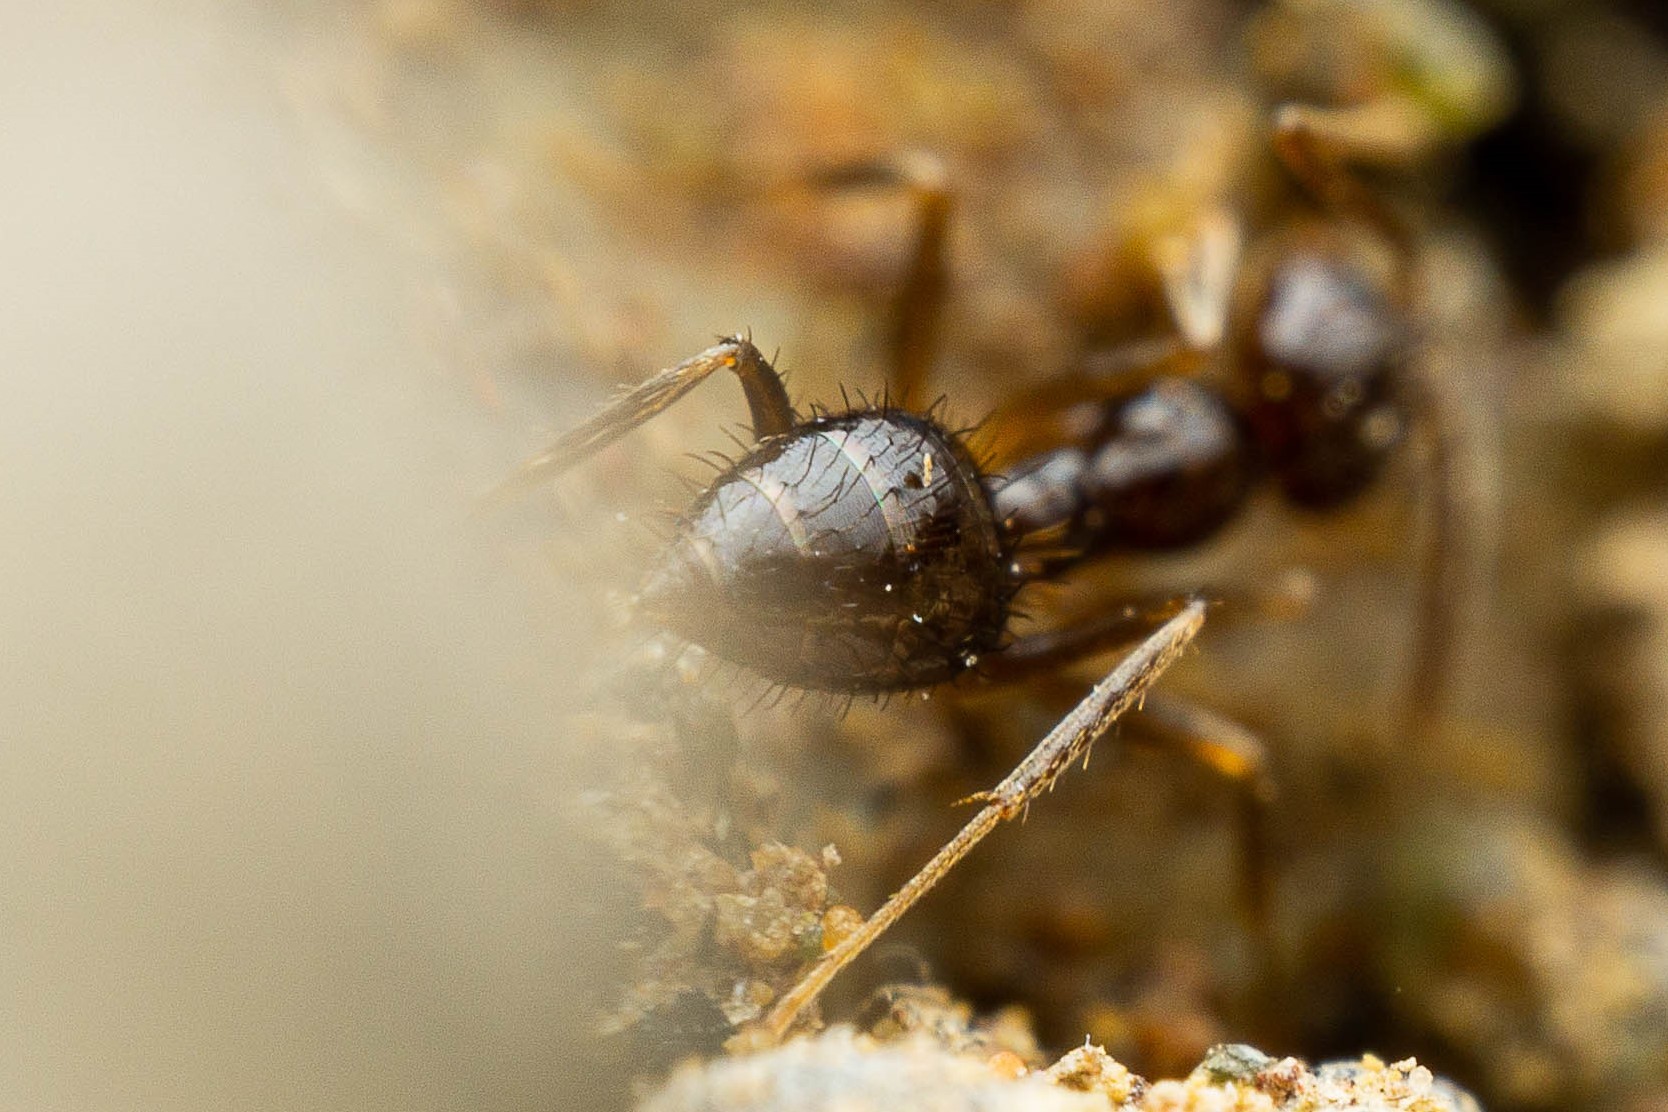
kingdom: Animalia
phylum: Arthropoda
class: Insecta
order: Hymenoptera
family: Formicidae
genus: Nylanderia
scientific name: Nylanderia bruesii
